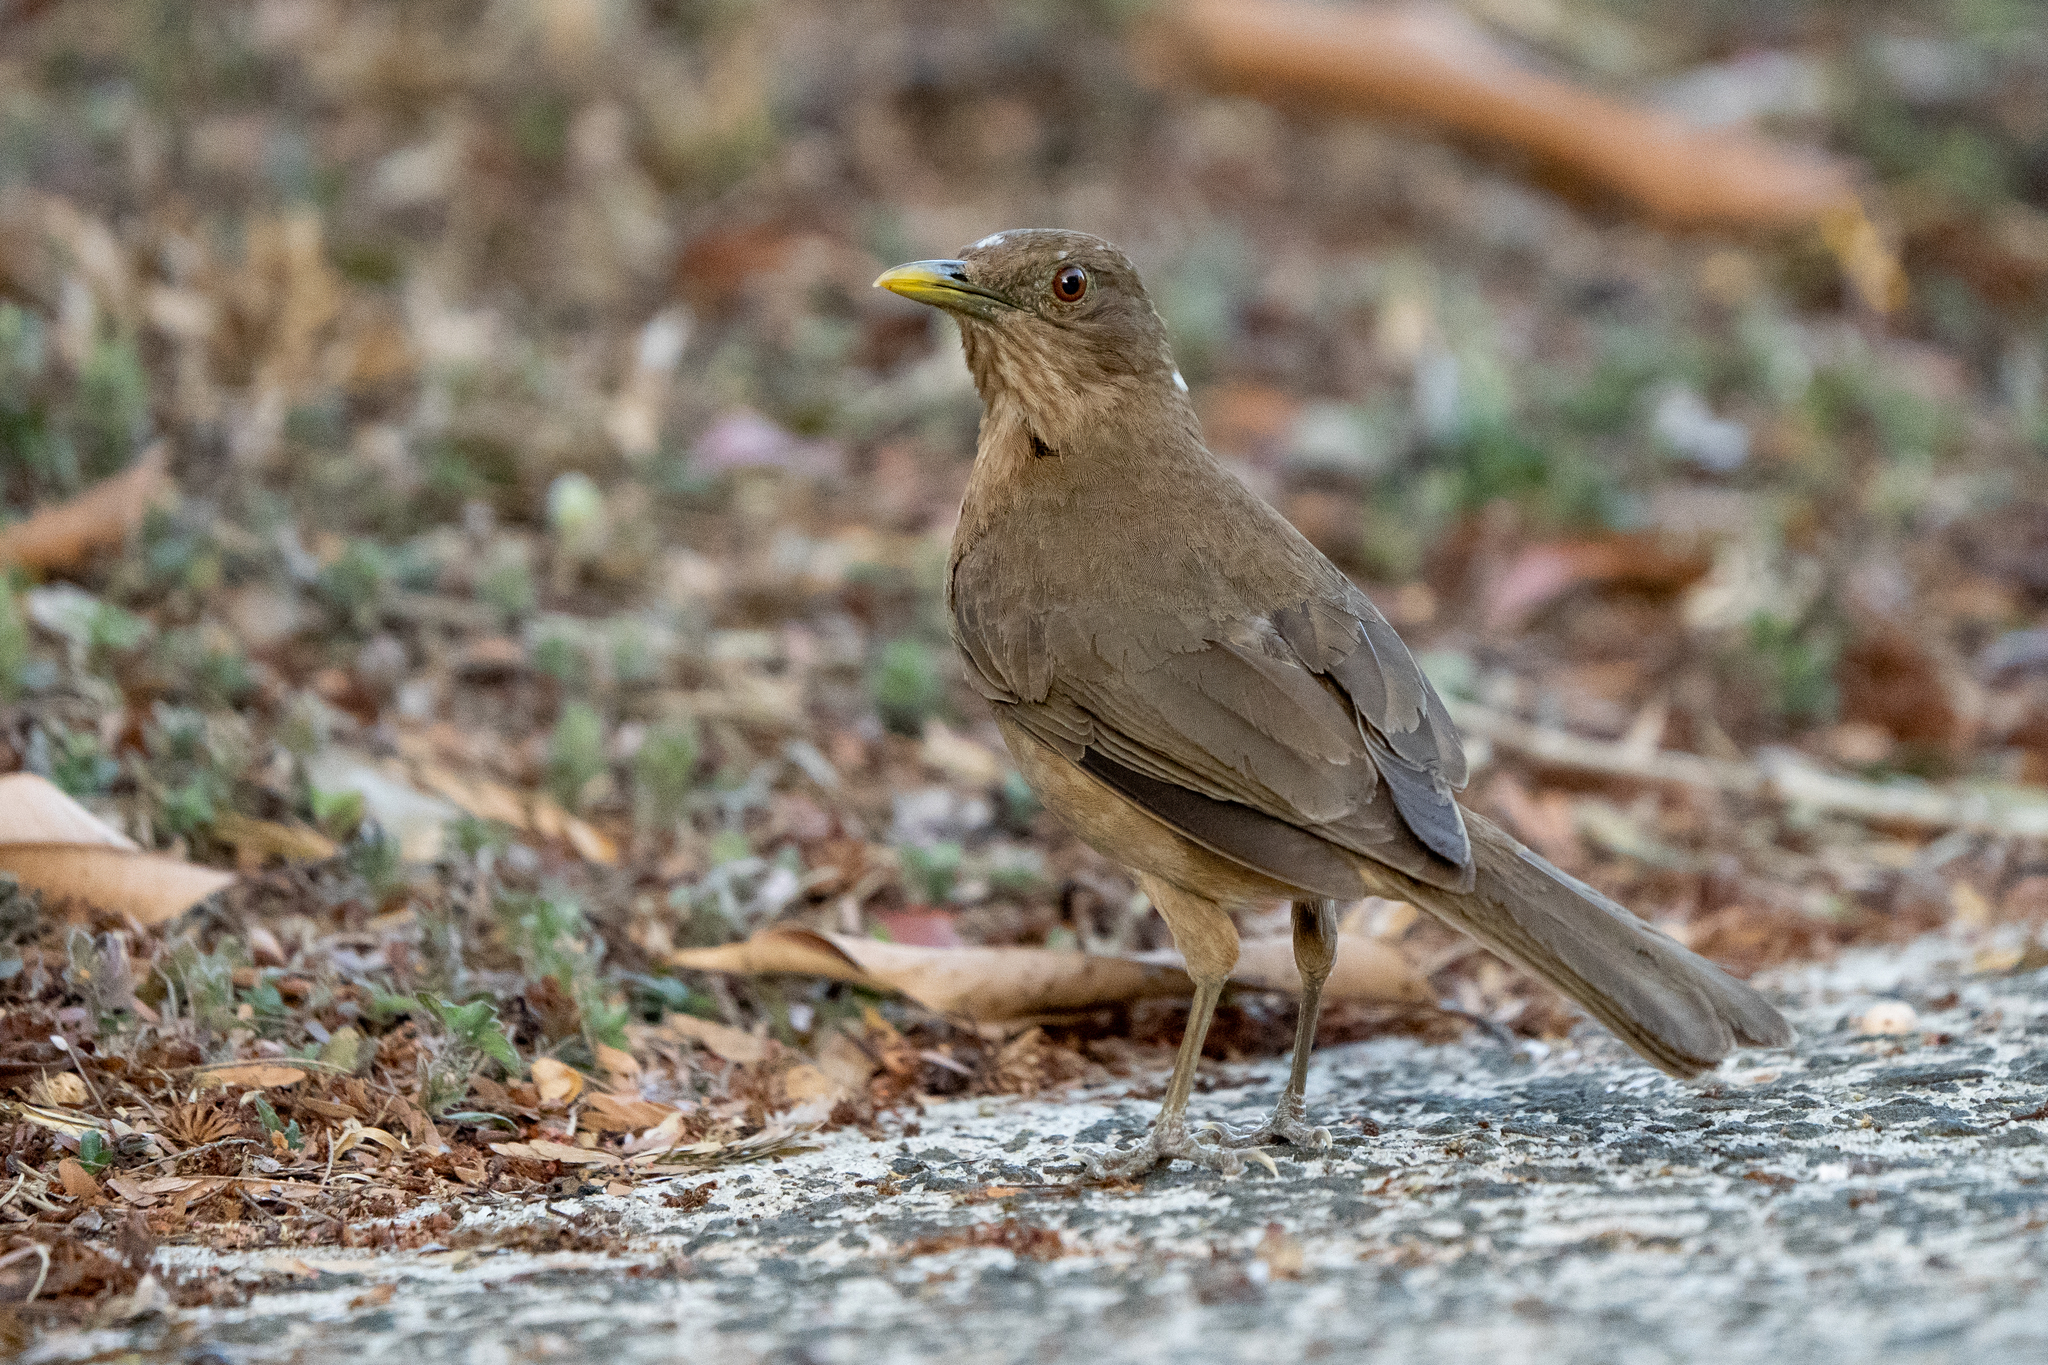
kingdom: Animalia
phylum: Chordata
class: Aves
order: Passeriformes
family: Turdidae
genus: Turdus
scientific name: Turdus grayi
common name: Clay-colored thrush
